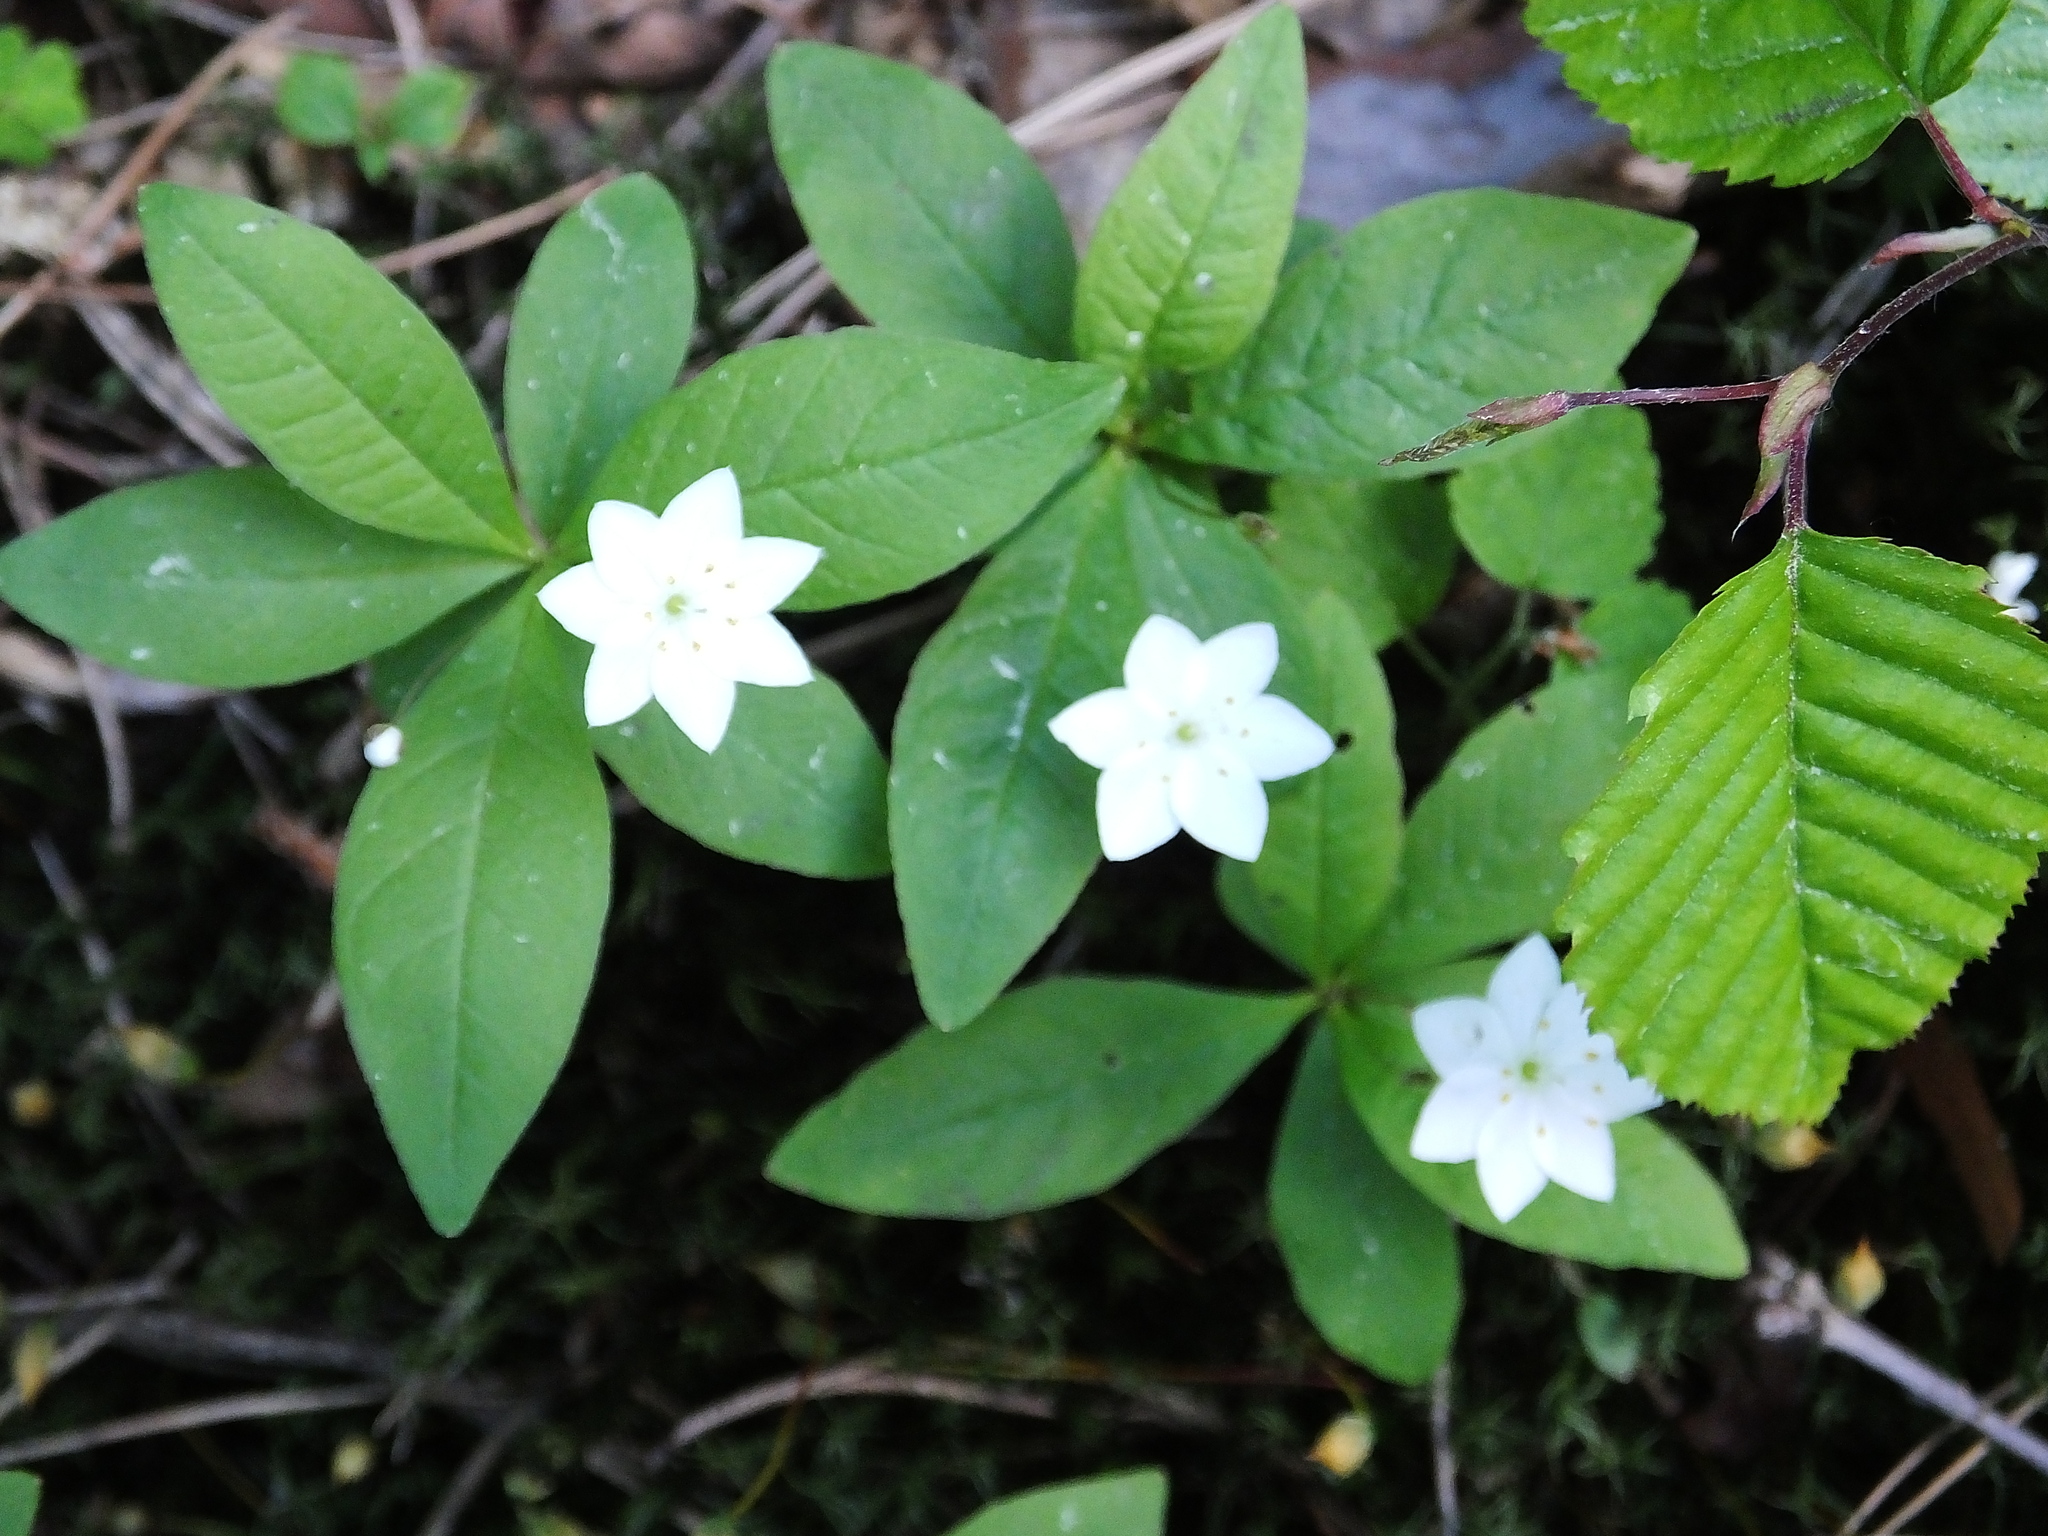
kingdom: Plantae
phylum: Tracheophyta
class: Magnoliopsida
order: Ericales
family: Primulaceae
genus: Lysimachia
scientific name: Lysimachia europaea
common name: Arctic starflower
